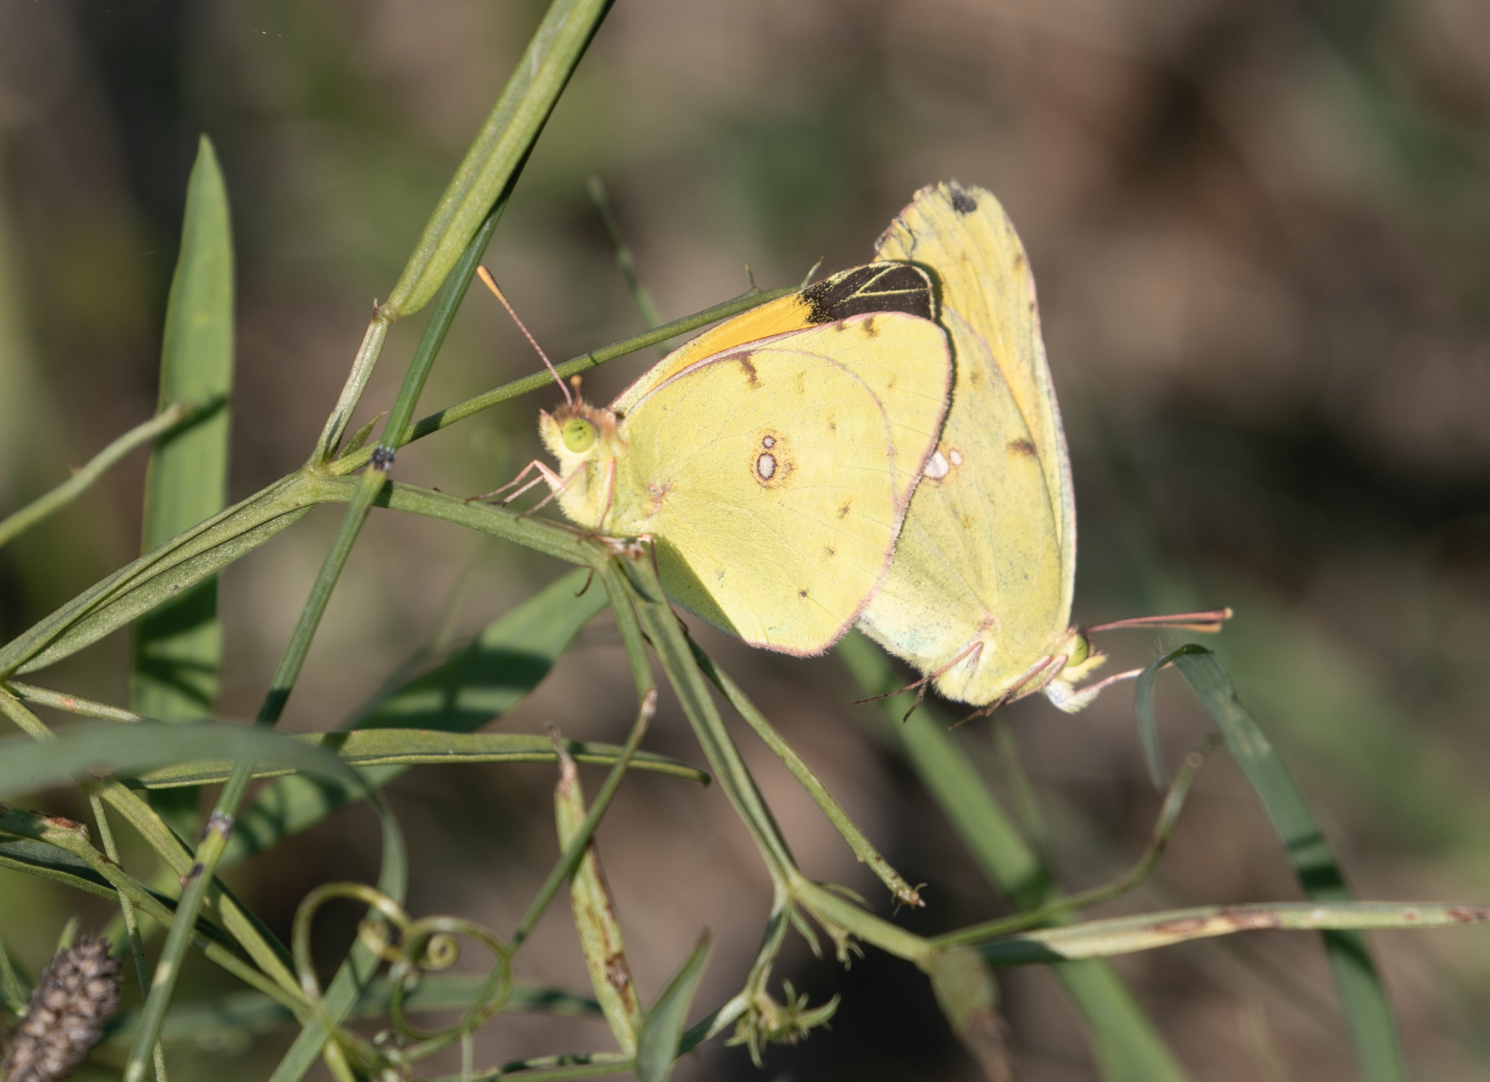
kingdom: Animalia
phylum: Arthropoda
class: Insecta
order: Lepidoptera
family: Pieridae
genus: Colias
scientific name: Colias croceus
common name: Clouded yellow
